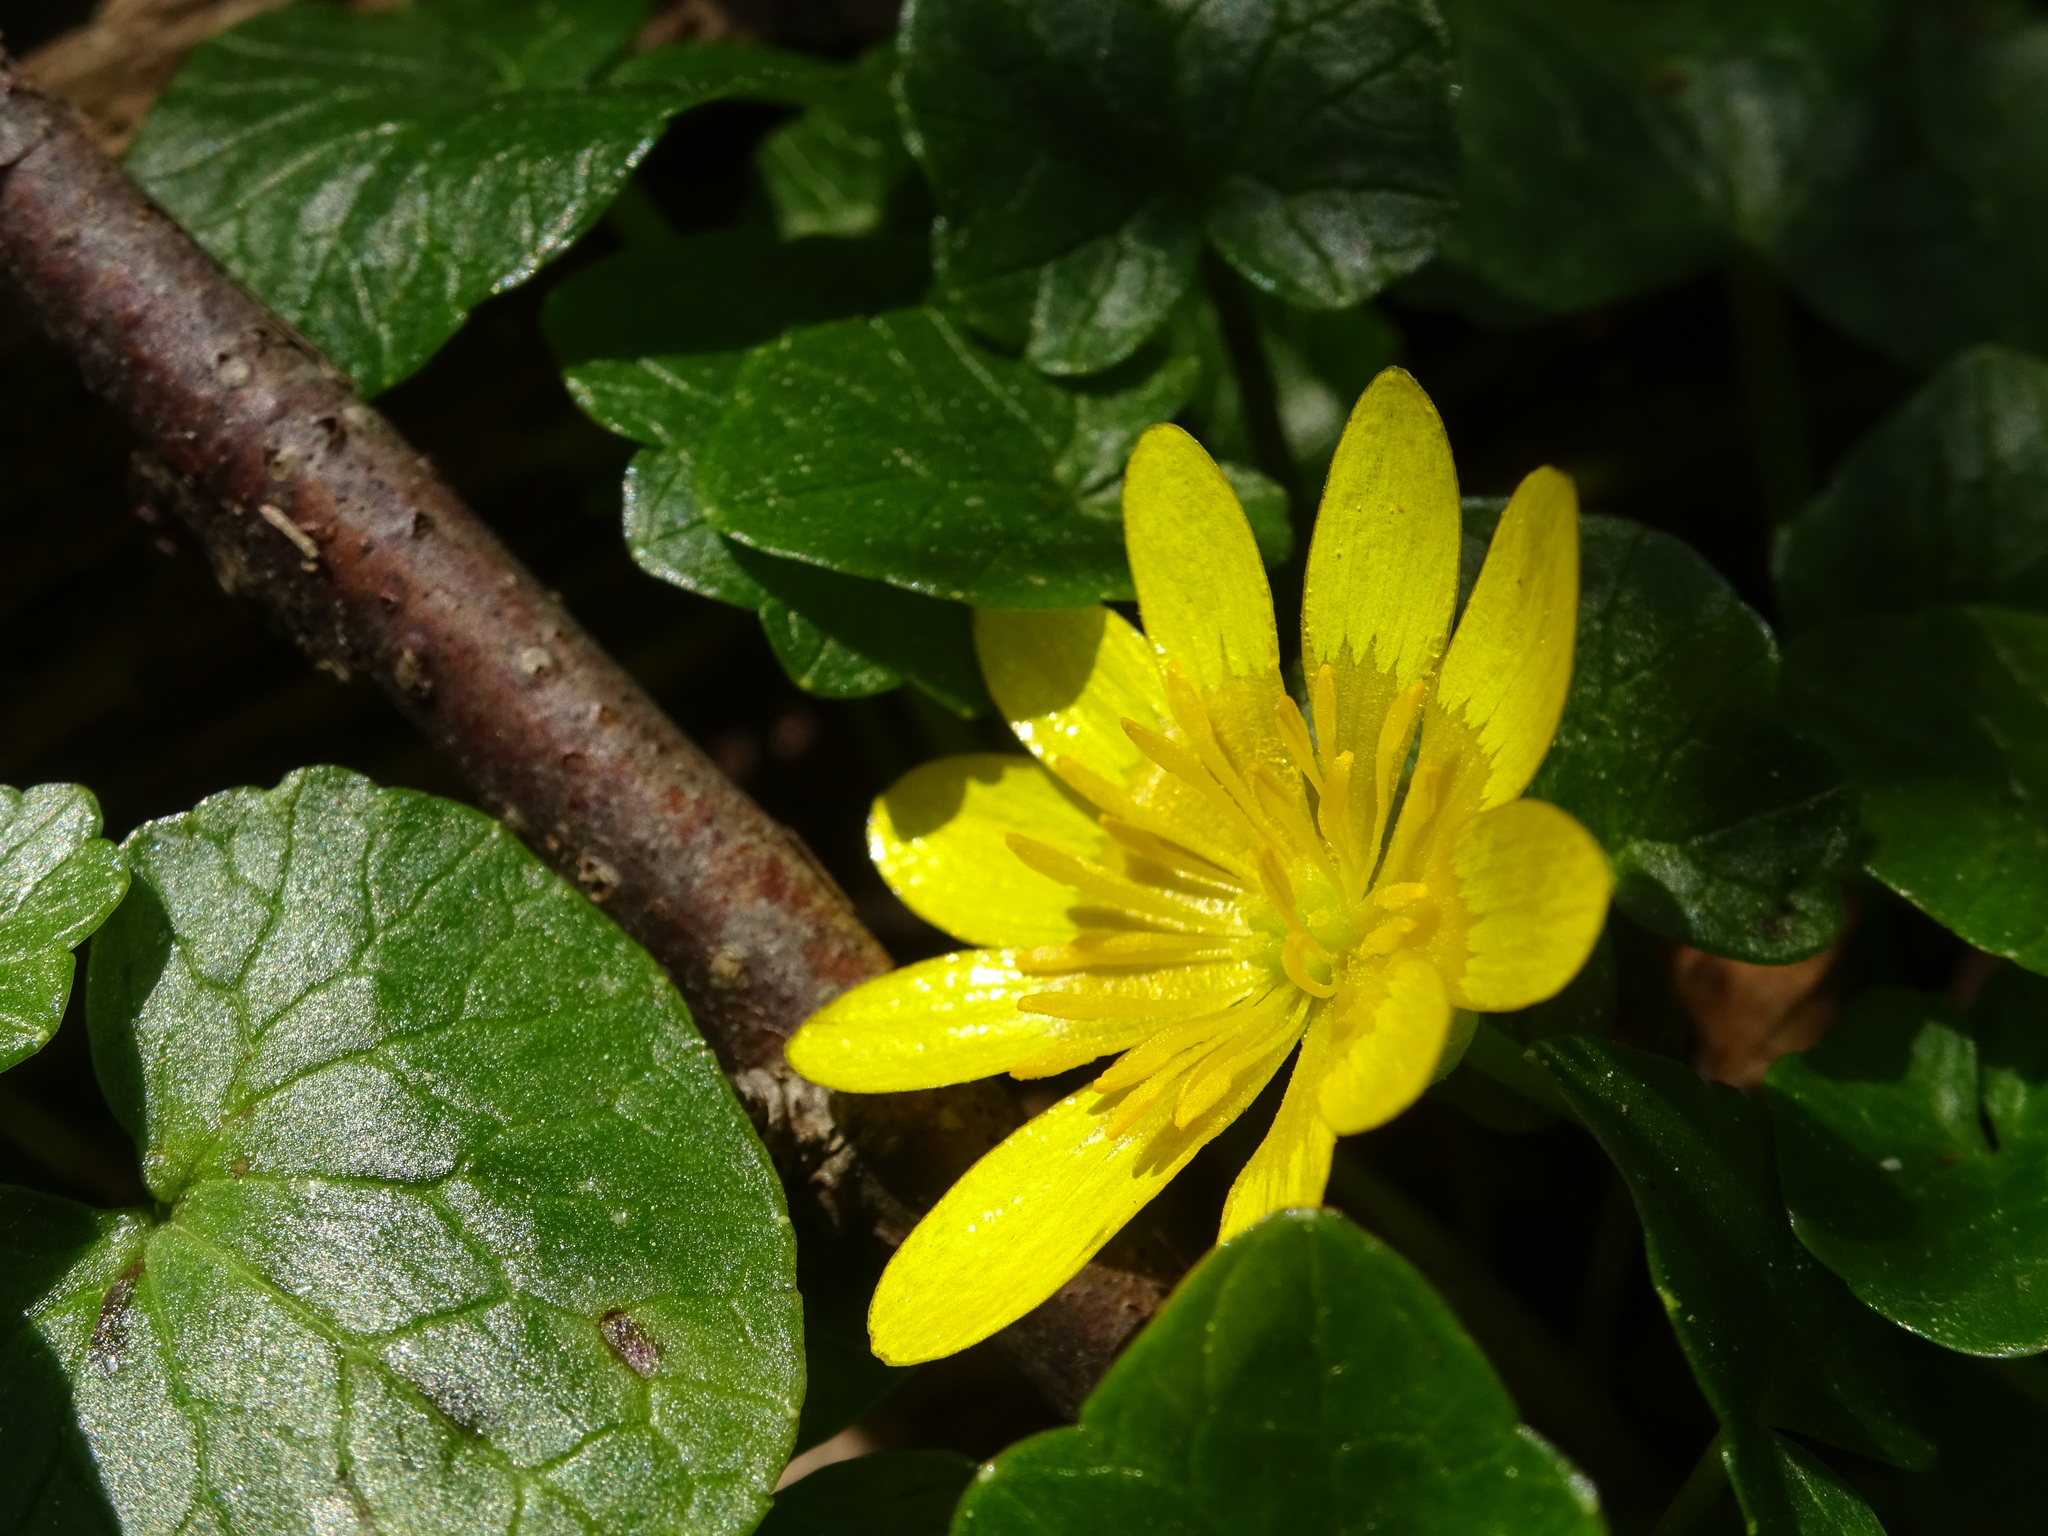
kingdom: Plantae
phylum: Tracheophyta
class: Magnoliopsida
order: Ranunculales
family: Ranunculaceae
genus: Ficaria
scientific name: Ficaria verna
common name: Lesser celandine
